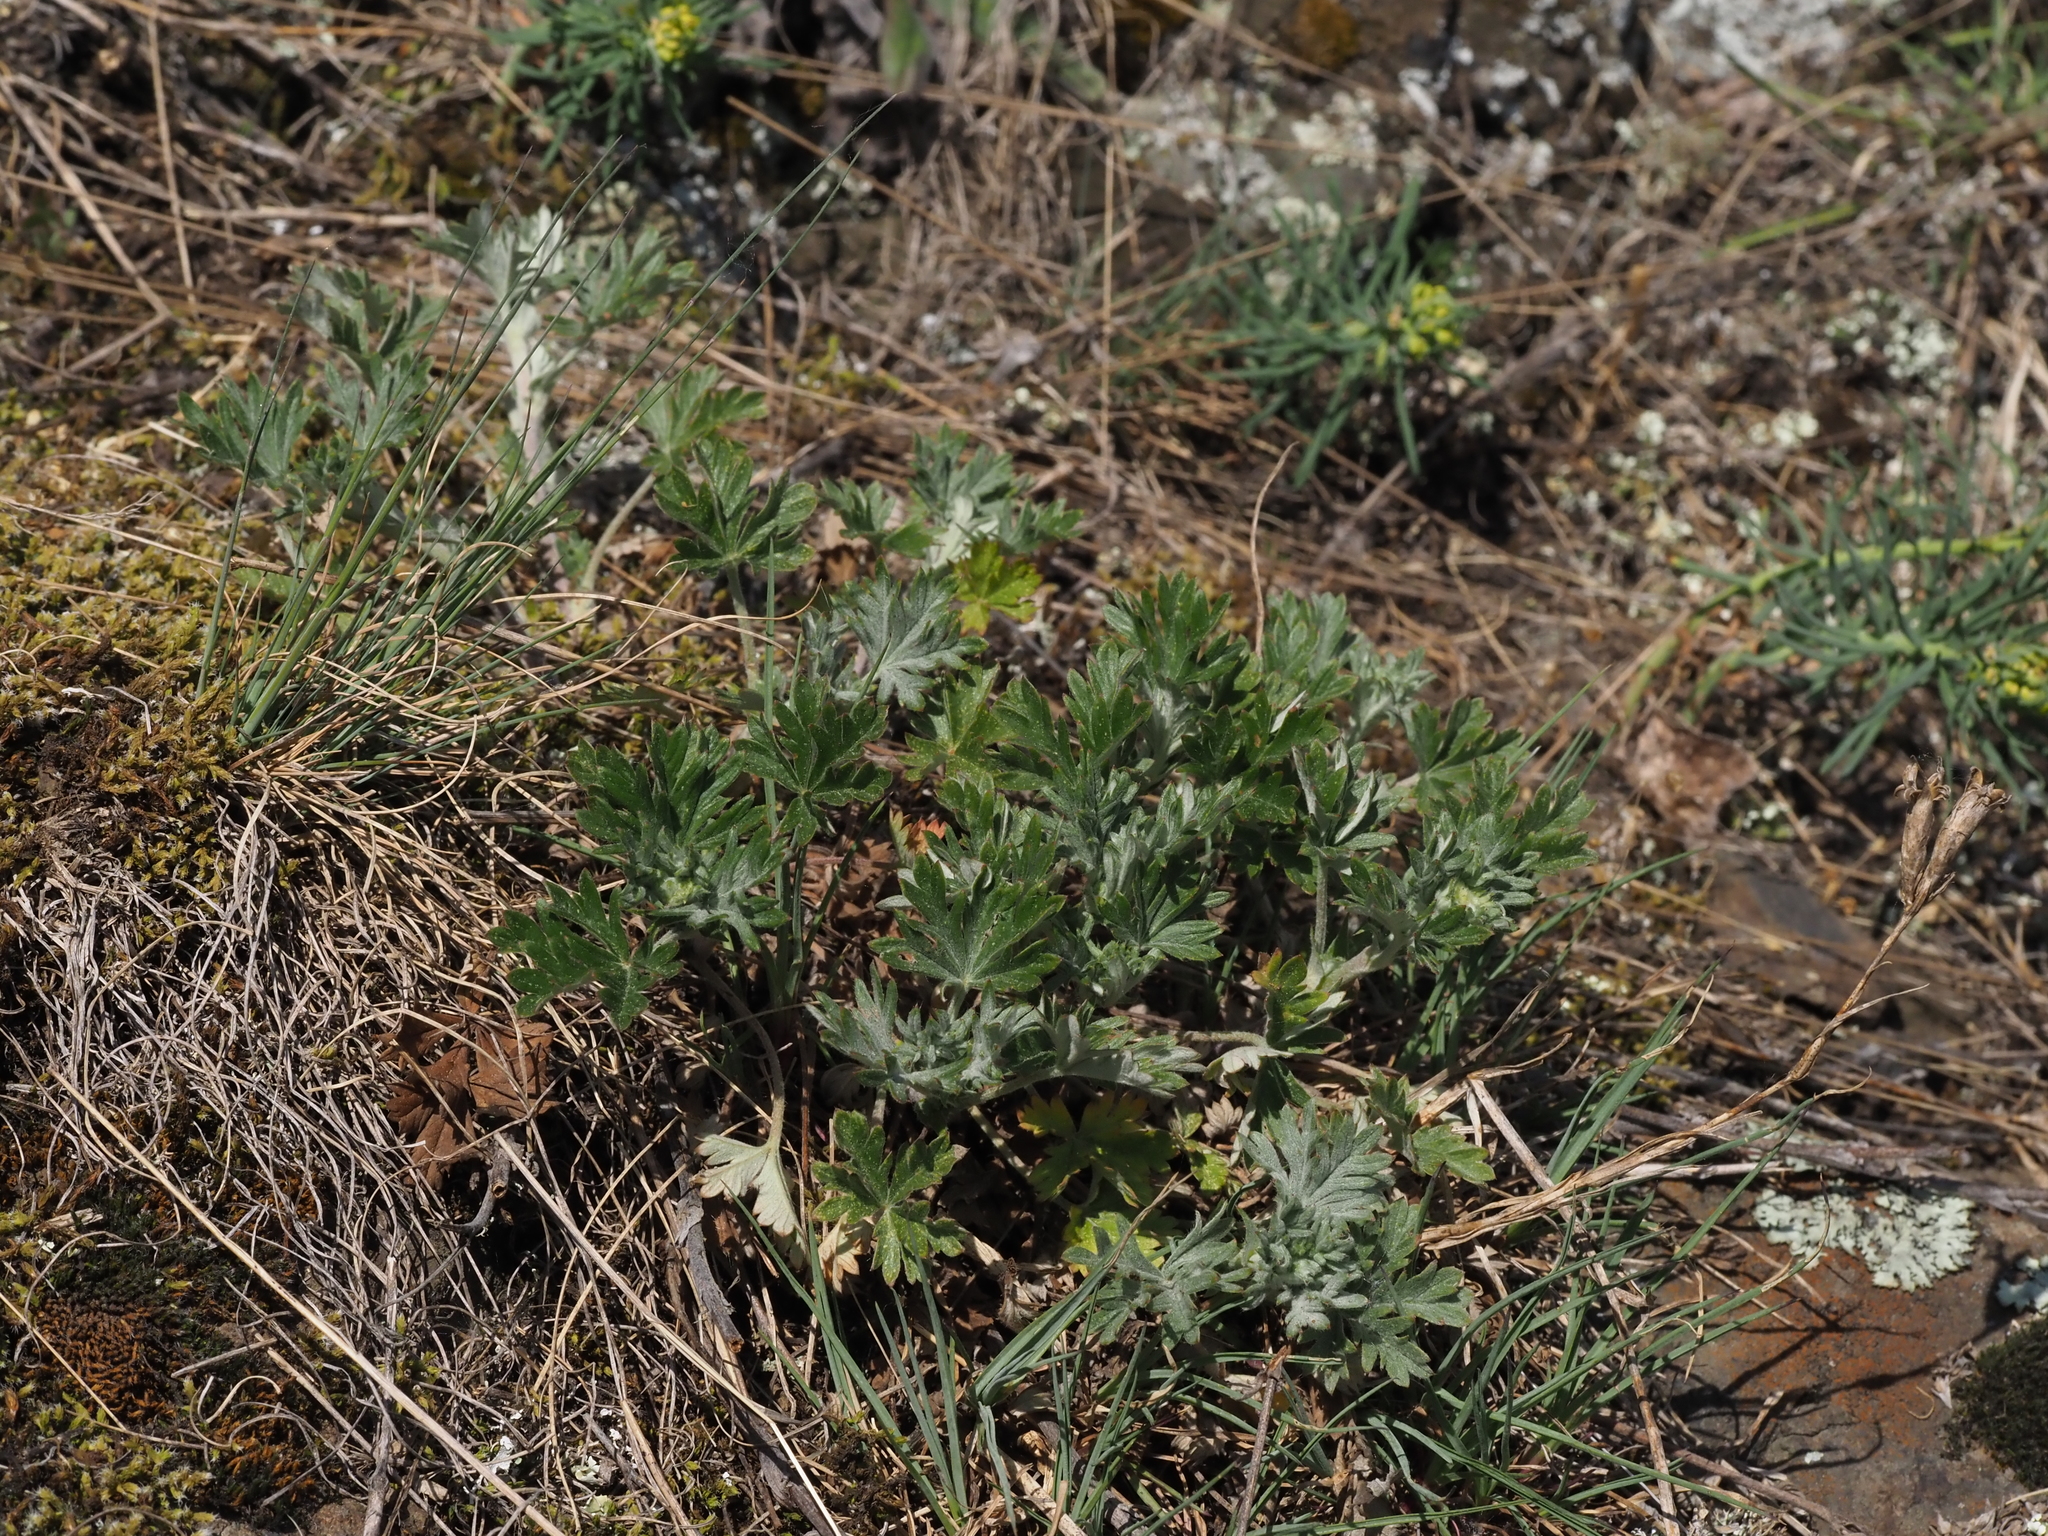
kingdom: Plantae
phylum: Tracheophyta
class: Magnoliopsida
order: Rosales
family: Rosaceae
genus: Potentilla
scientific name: Potentilla argentea
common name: Hoary cinquefoil
